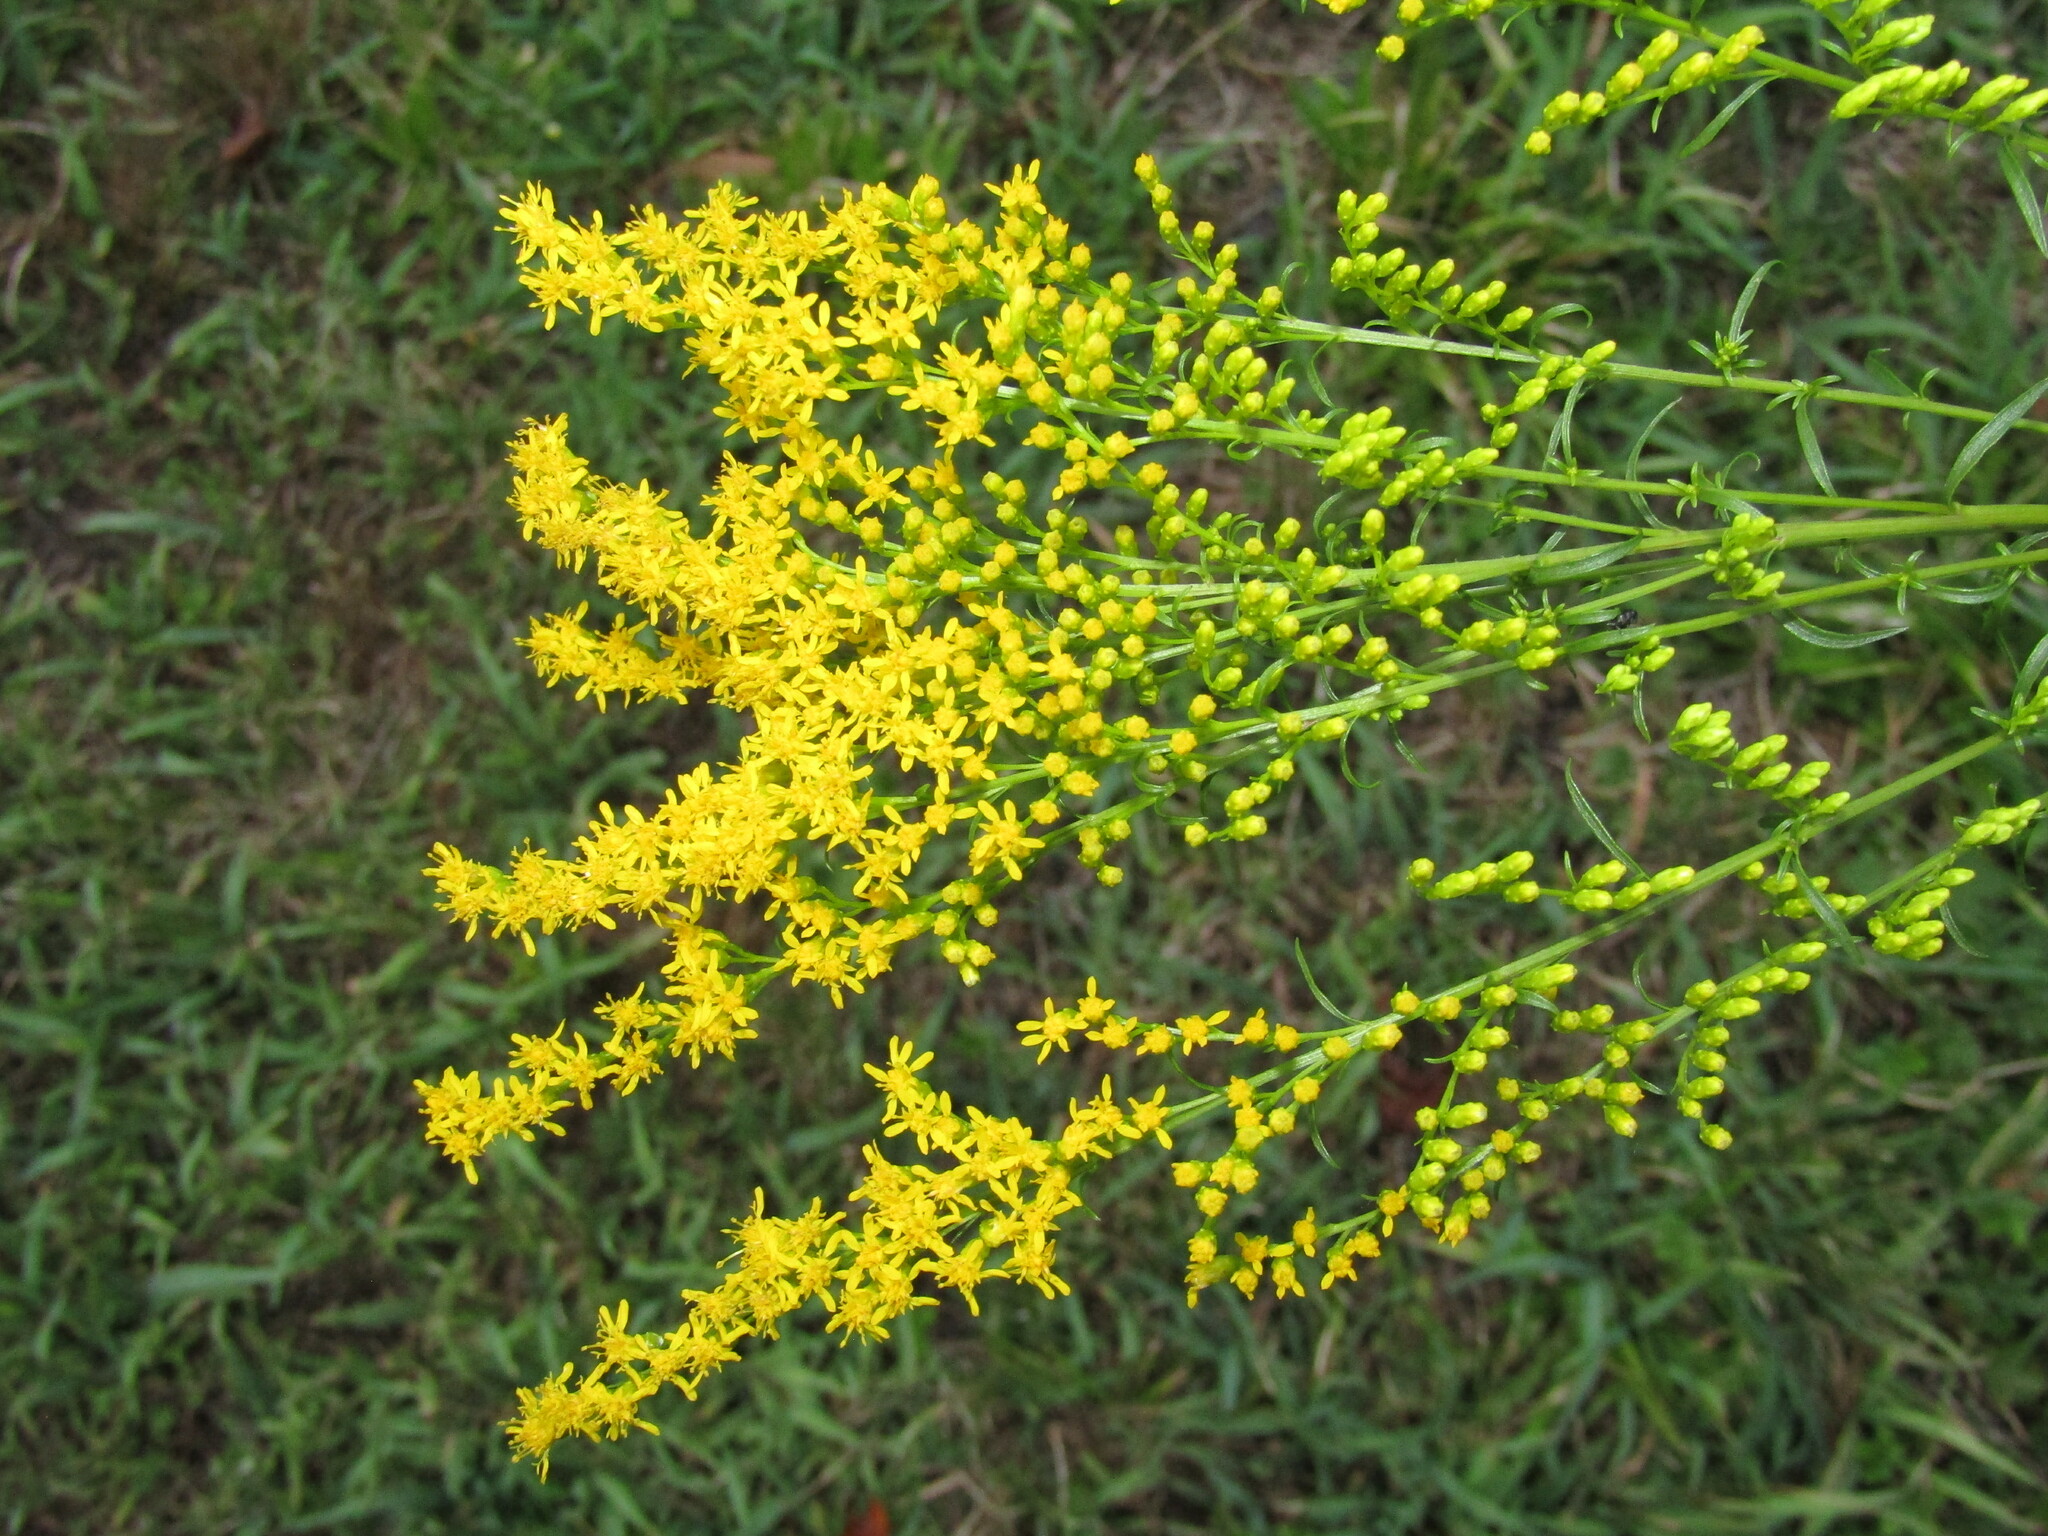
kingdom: Plantae
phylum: Tracheophyta
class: Magnoliopsida
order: Asterales
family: Asteraceae
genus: Solidago
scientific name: Solidago pinetorum
